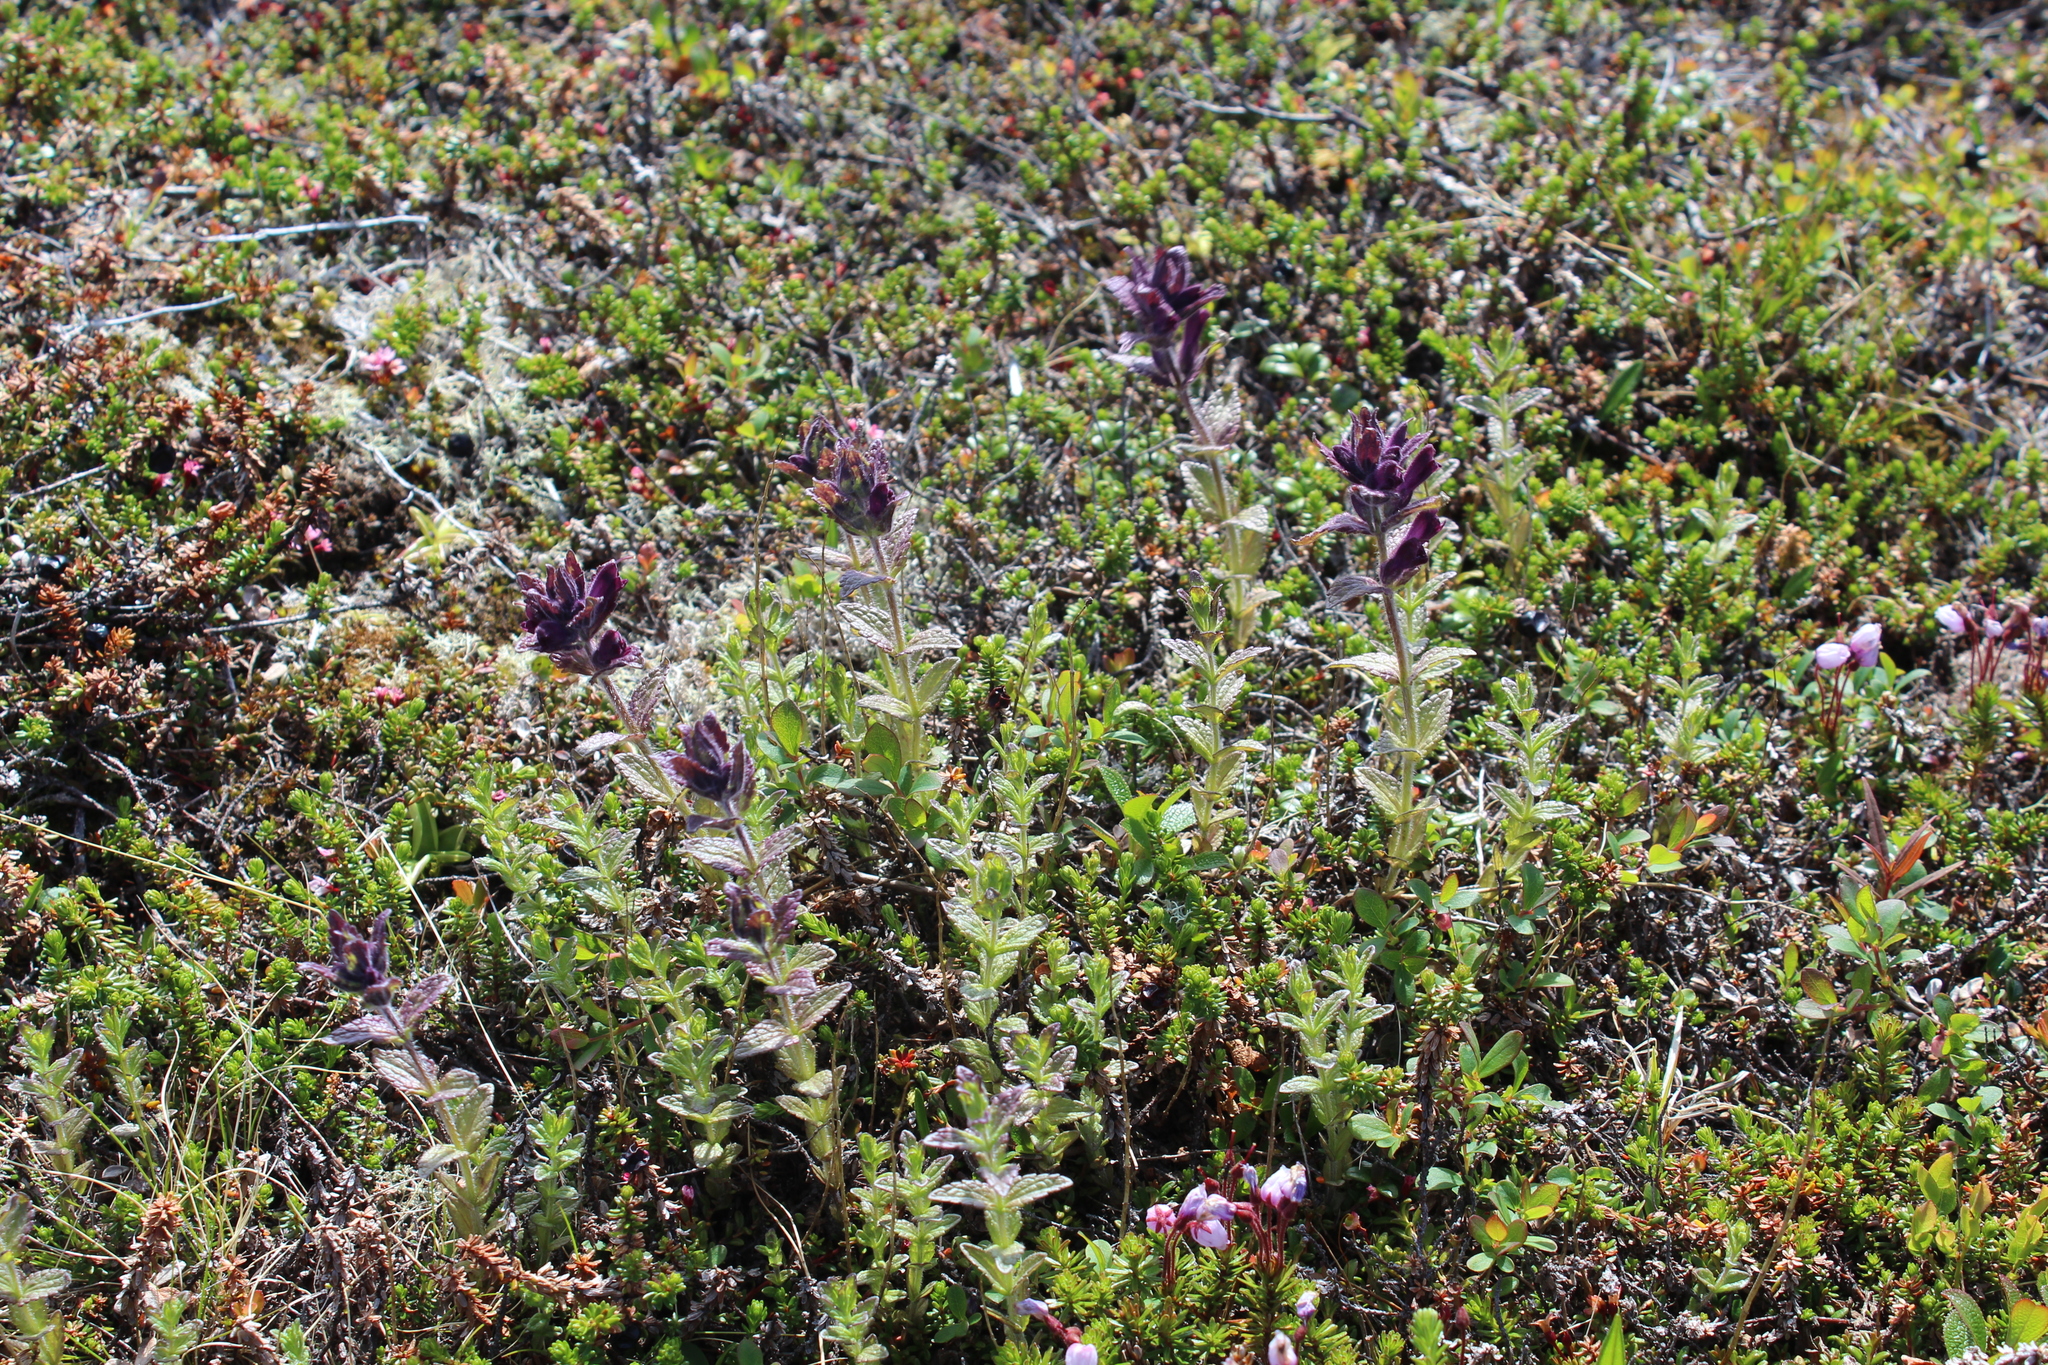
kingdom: Plantae
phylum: Tracheophyta
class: Magnoliopsida
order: Lamiales
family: Orobanchaceae
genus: Bartsia
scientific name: Bartsia alpina
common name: Alpine bartsia
